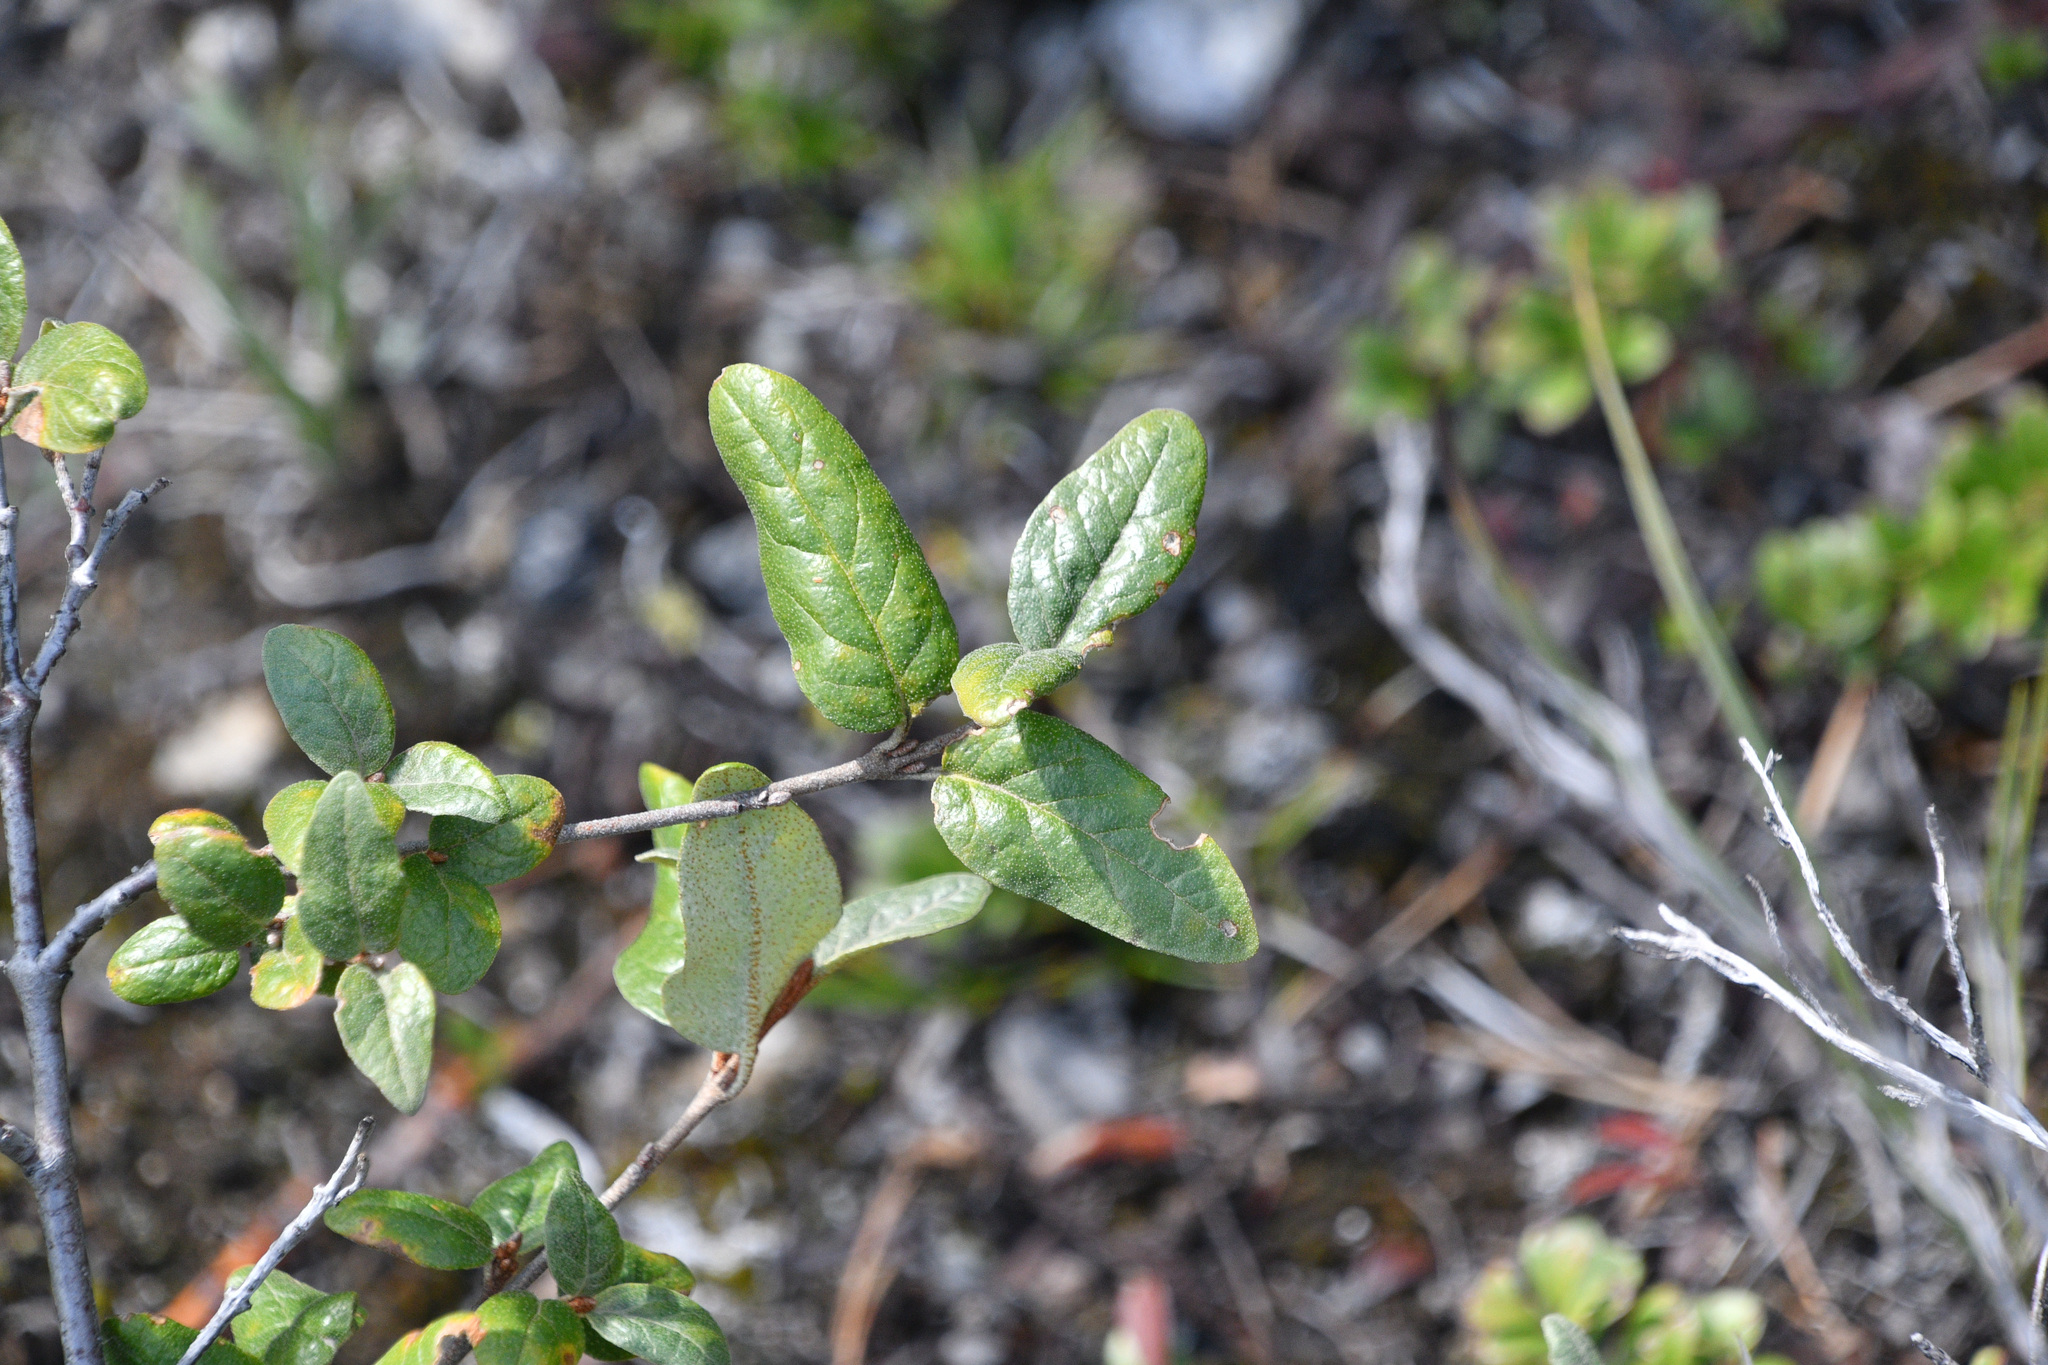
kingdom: Plantae
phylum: Tracheophyta
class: Magnoliopsida
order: Rosales
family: Elaeagnaceae
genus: Shepherdia
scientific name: Shepherdia canadensis
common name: Soapberry
